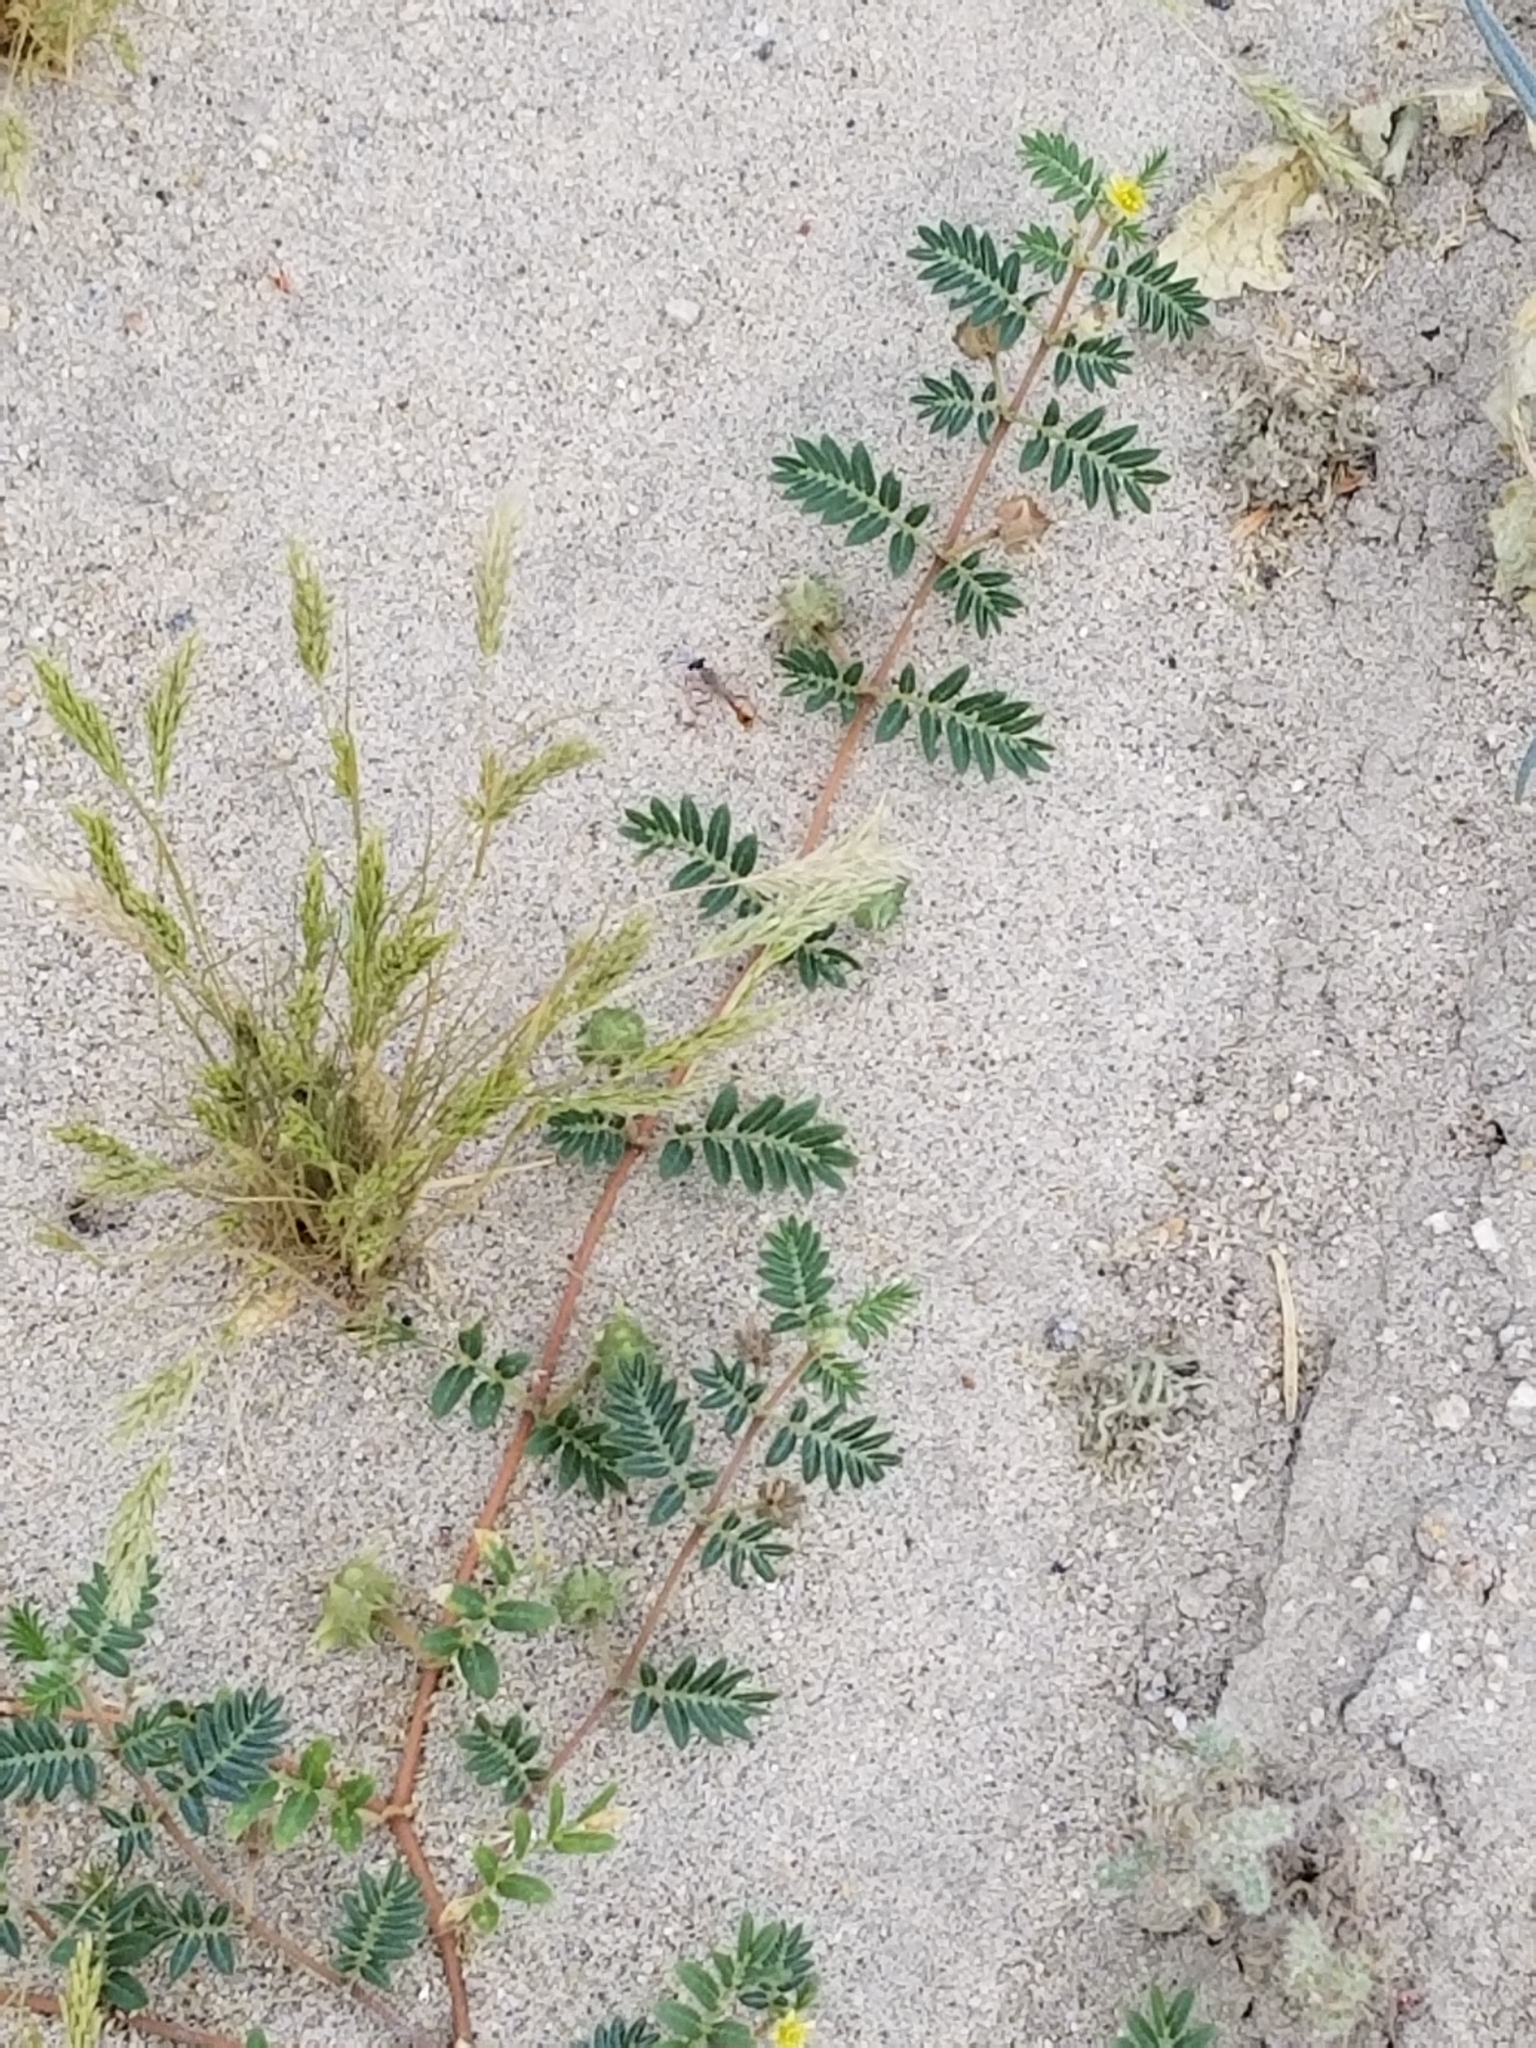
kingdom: Plantae
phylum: Tracheophyta
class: Magnoliopsida
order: Zygophyllales
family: Zygophyllaceae
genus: Tribulus
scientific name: Tribulus terrestris
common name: Puncturevine
